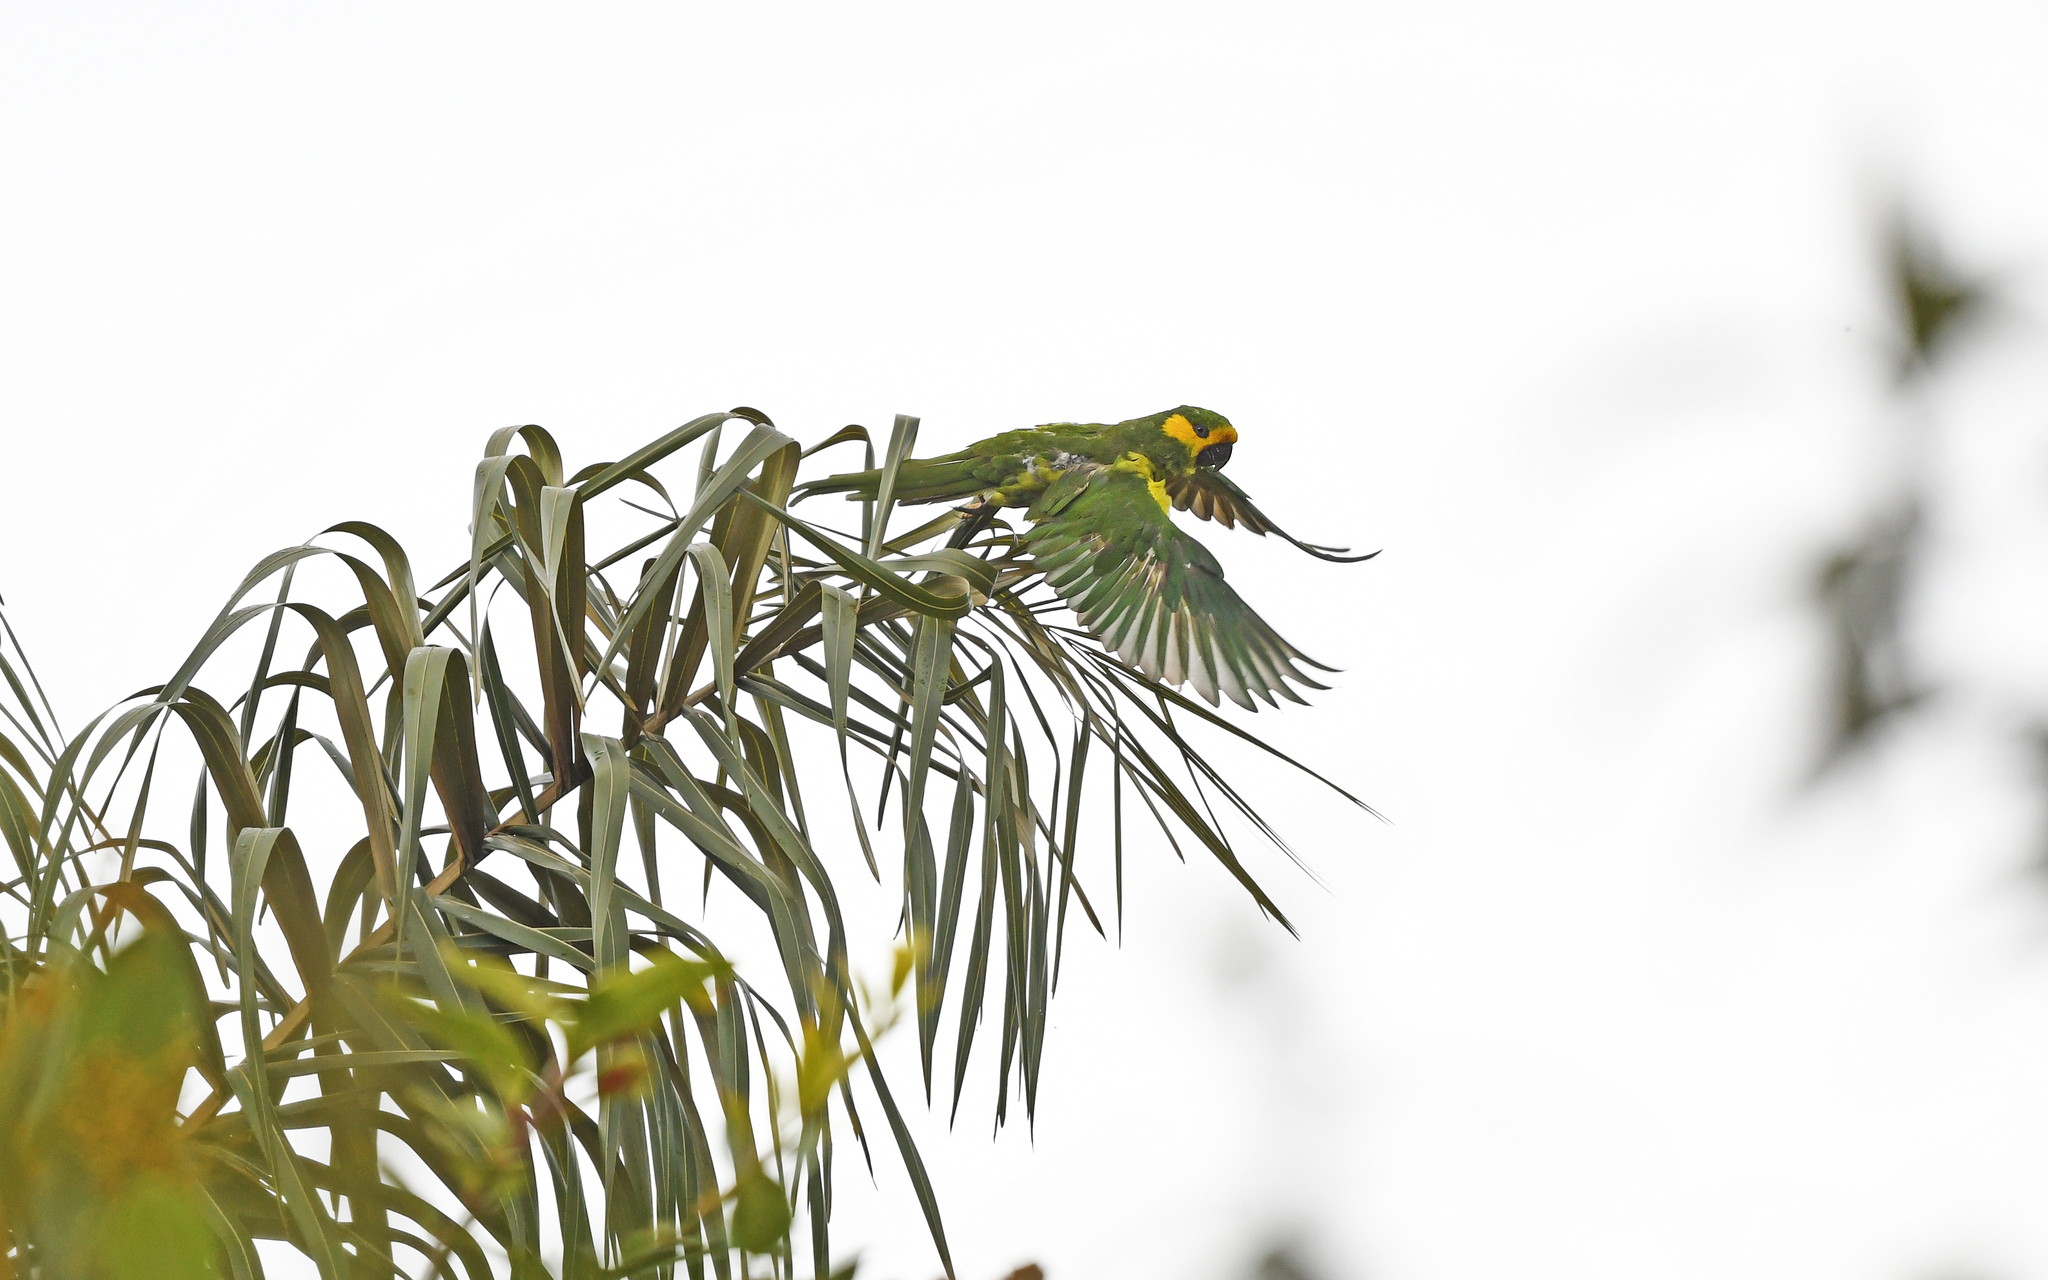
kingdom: Animalia
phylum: Chordata
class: Aves
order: Psittaciformes
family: Psittacidae
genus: Ognorhynchus
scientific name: Ognorhynchus icterotis
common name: Yellow-eared parrot
